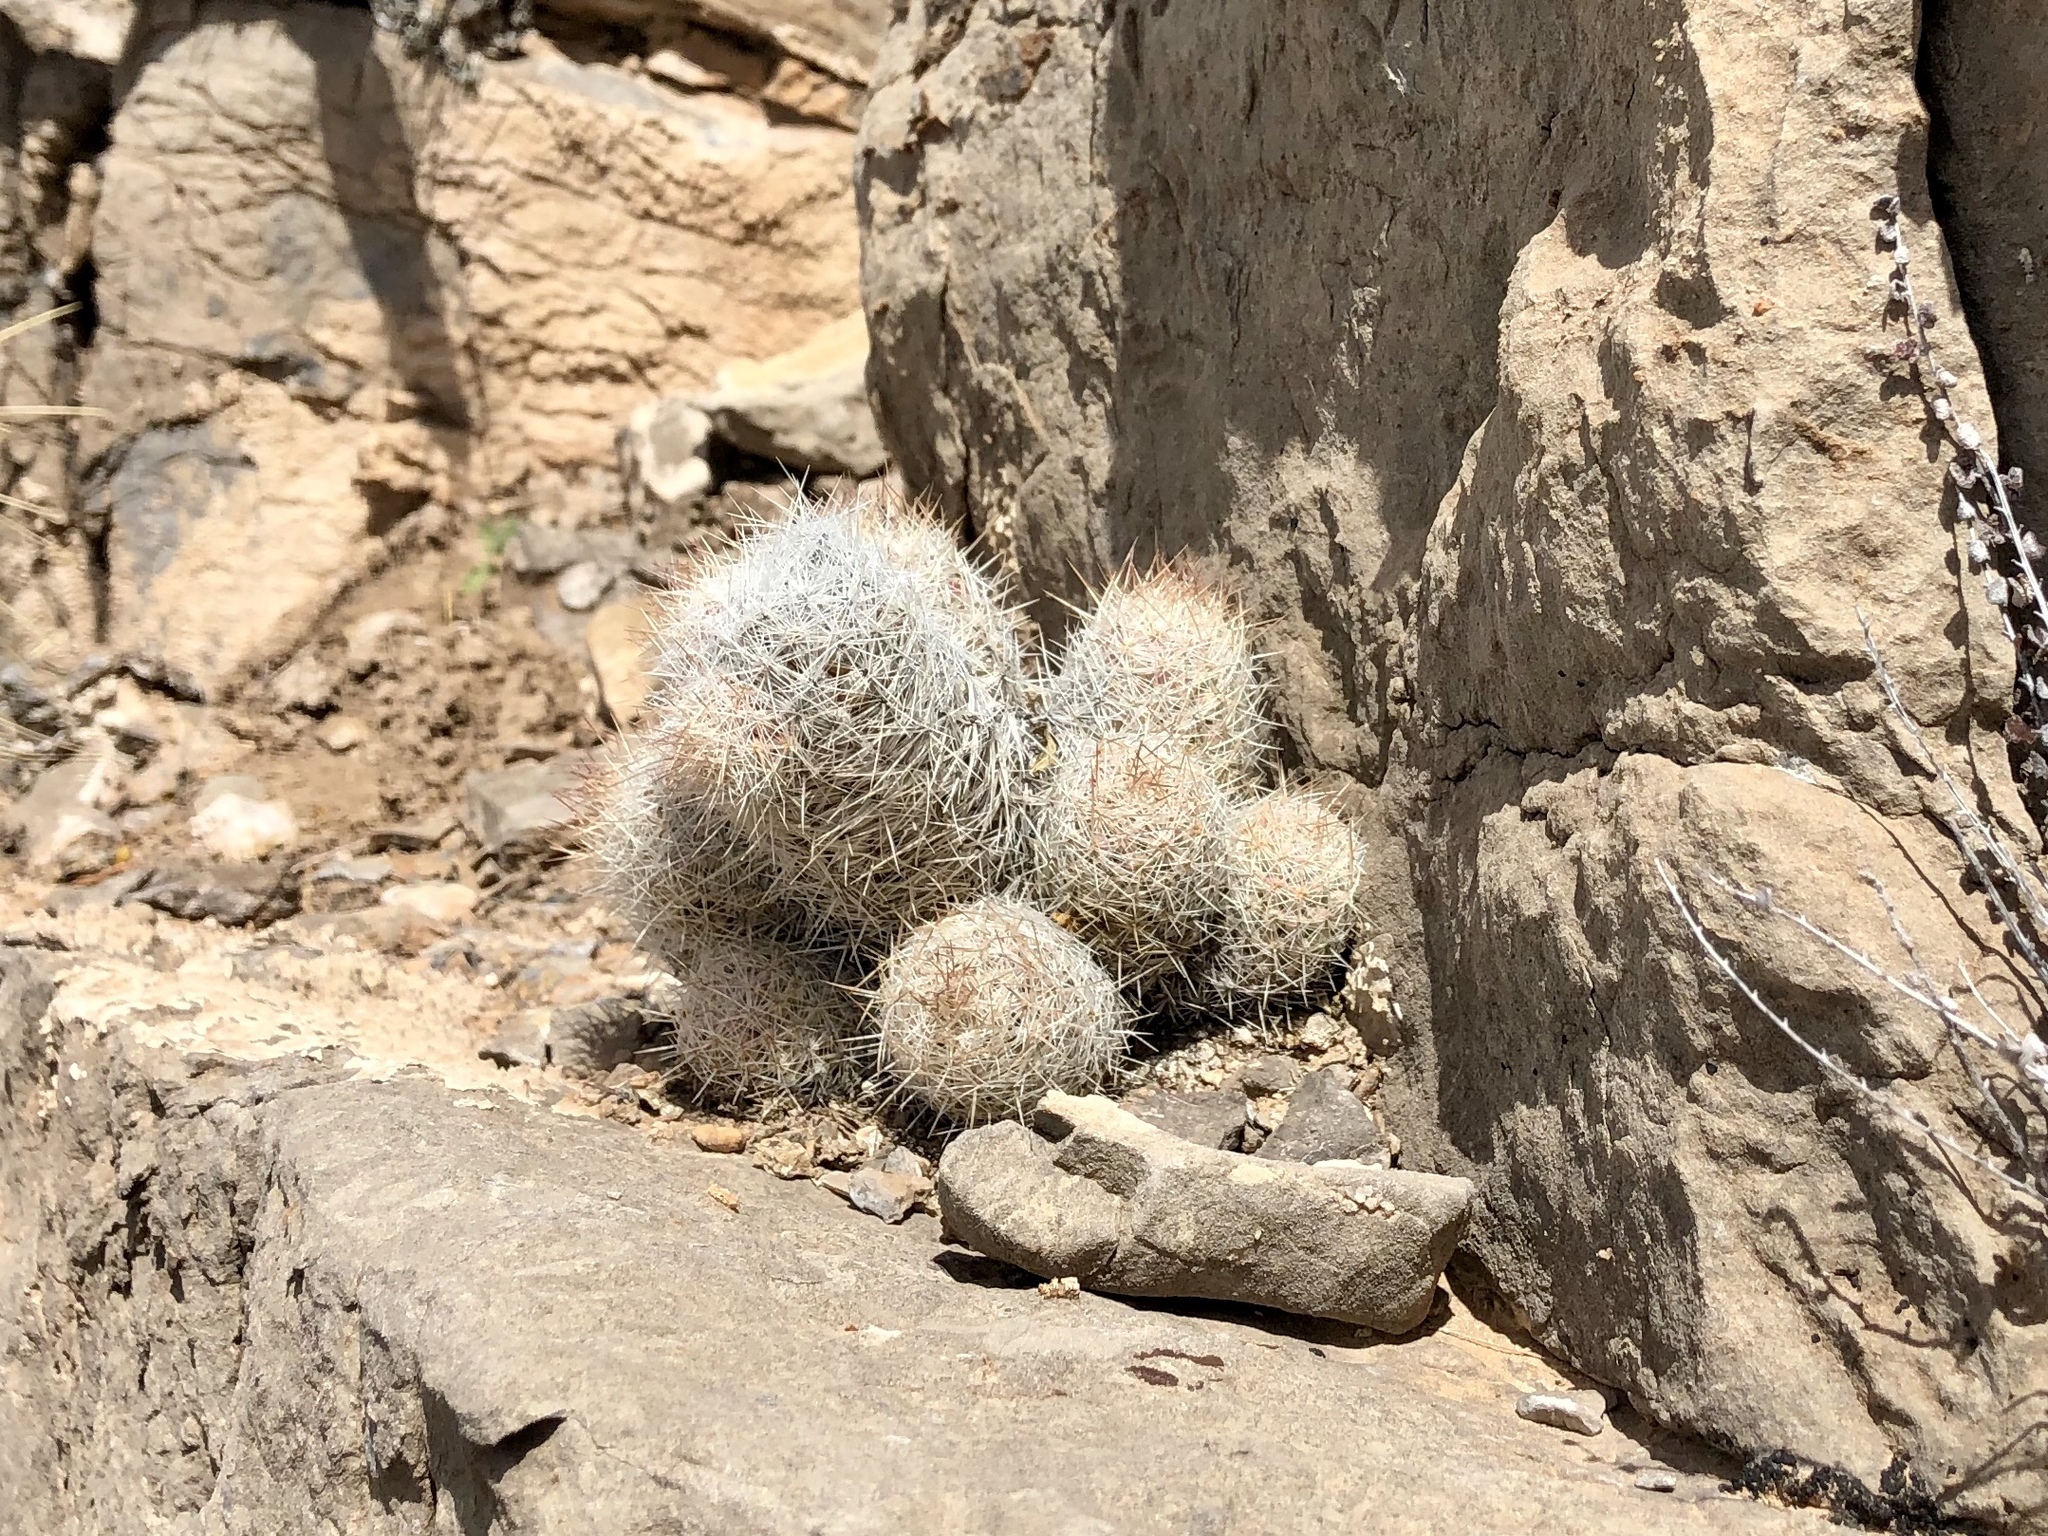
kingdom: Plantae
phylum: Tracheophyta
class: Magnoliopsida
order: Caryophyllales
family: Cactaceae
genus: Pelecyphora
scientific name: Pelecyphora tuberculosa
